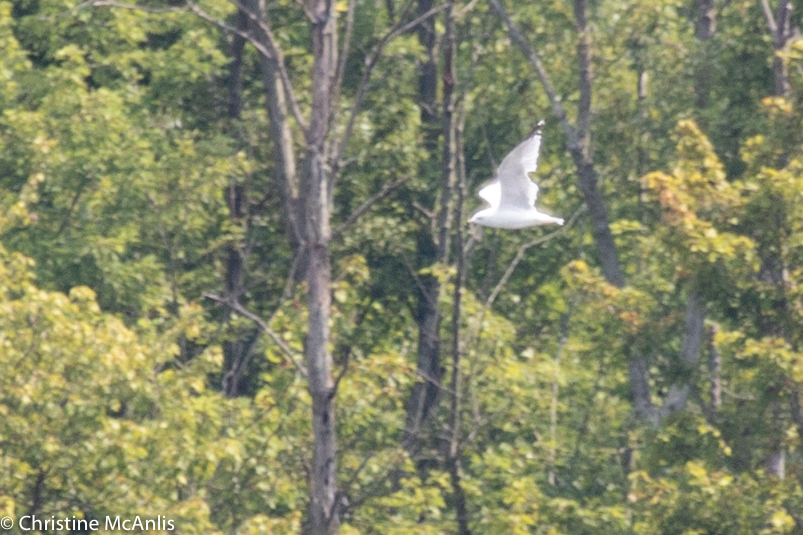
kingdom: Animalia
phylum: Chordata
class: Aves
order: Charadriiformes
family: Laridae
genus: Larus
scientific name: Larus delawarensis
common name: Ring-billed gull
